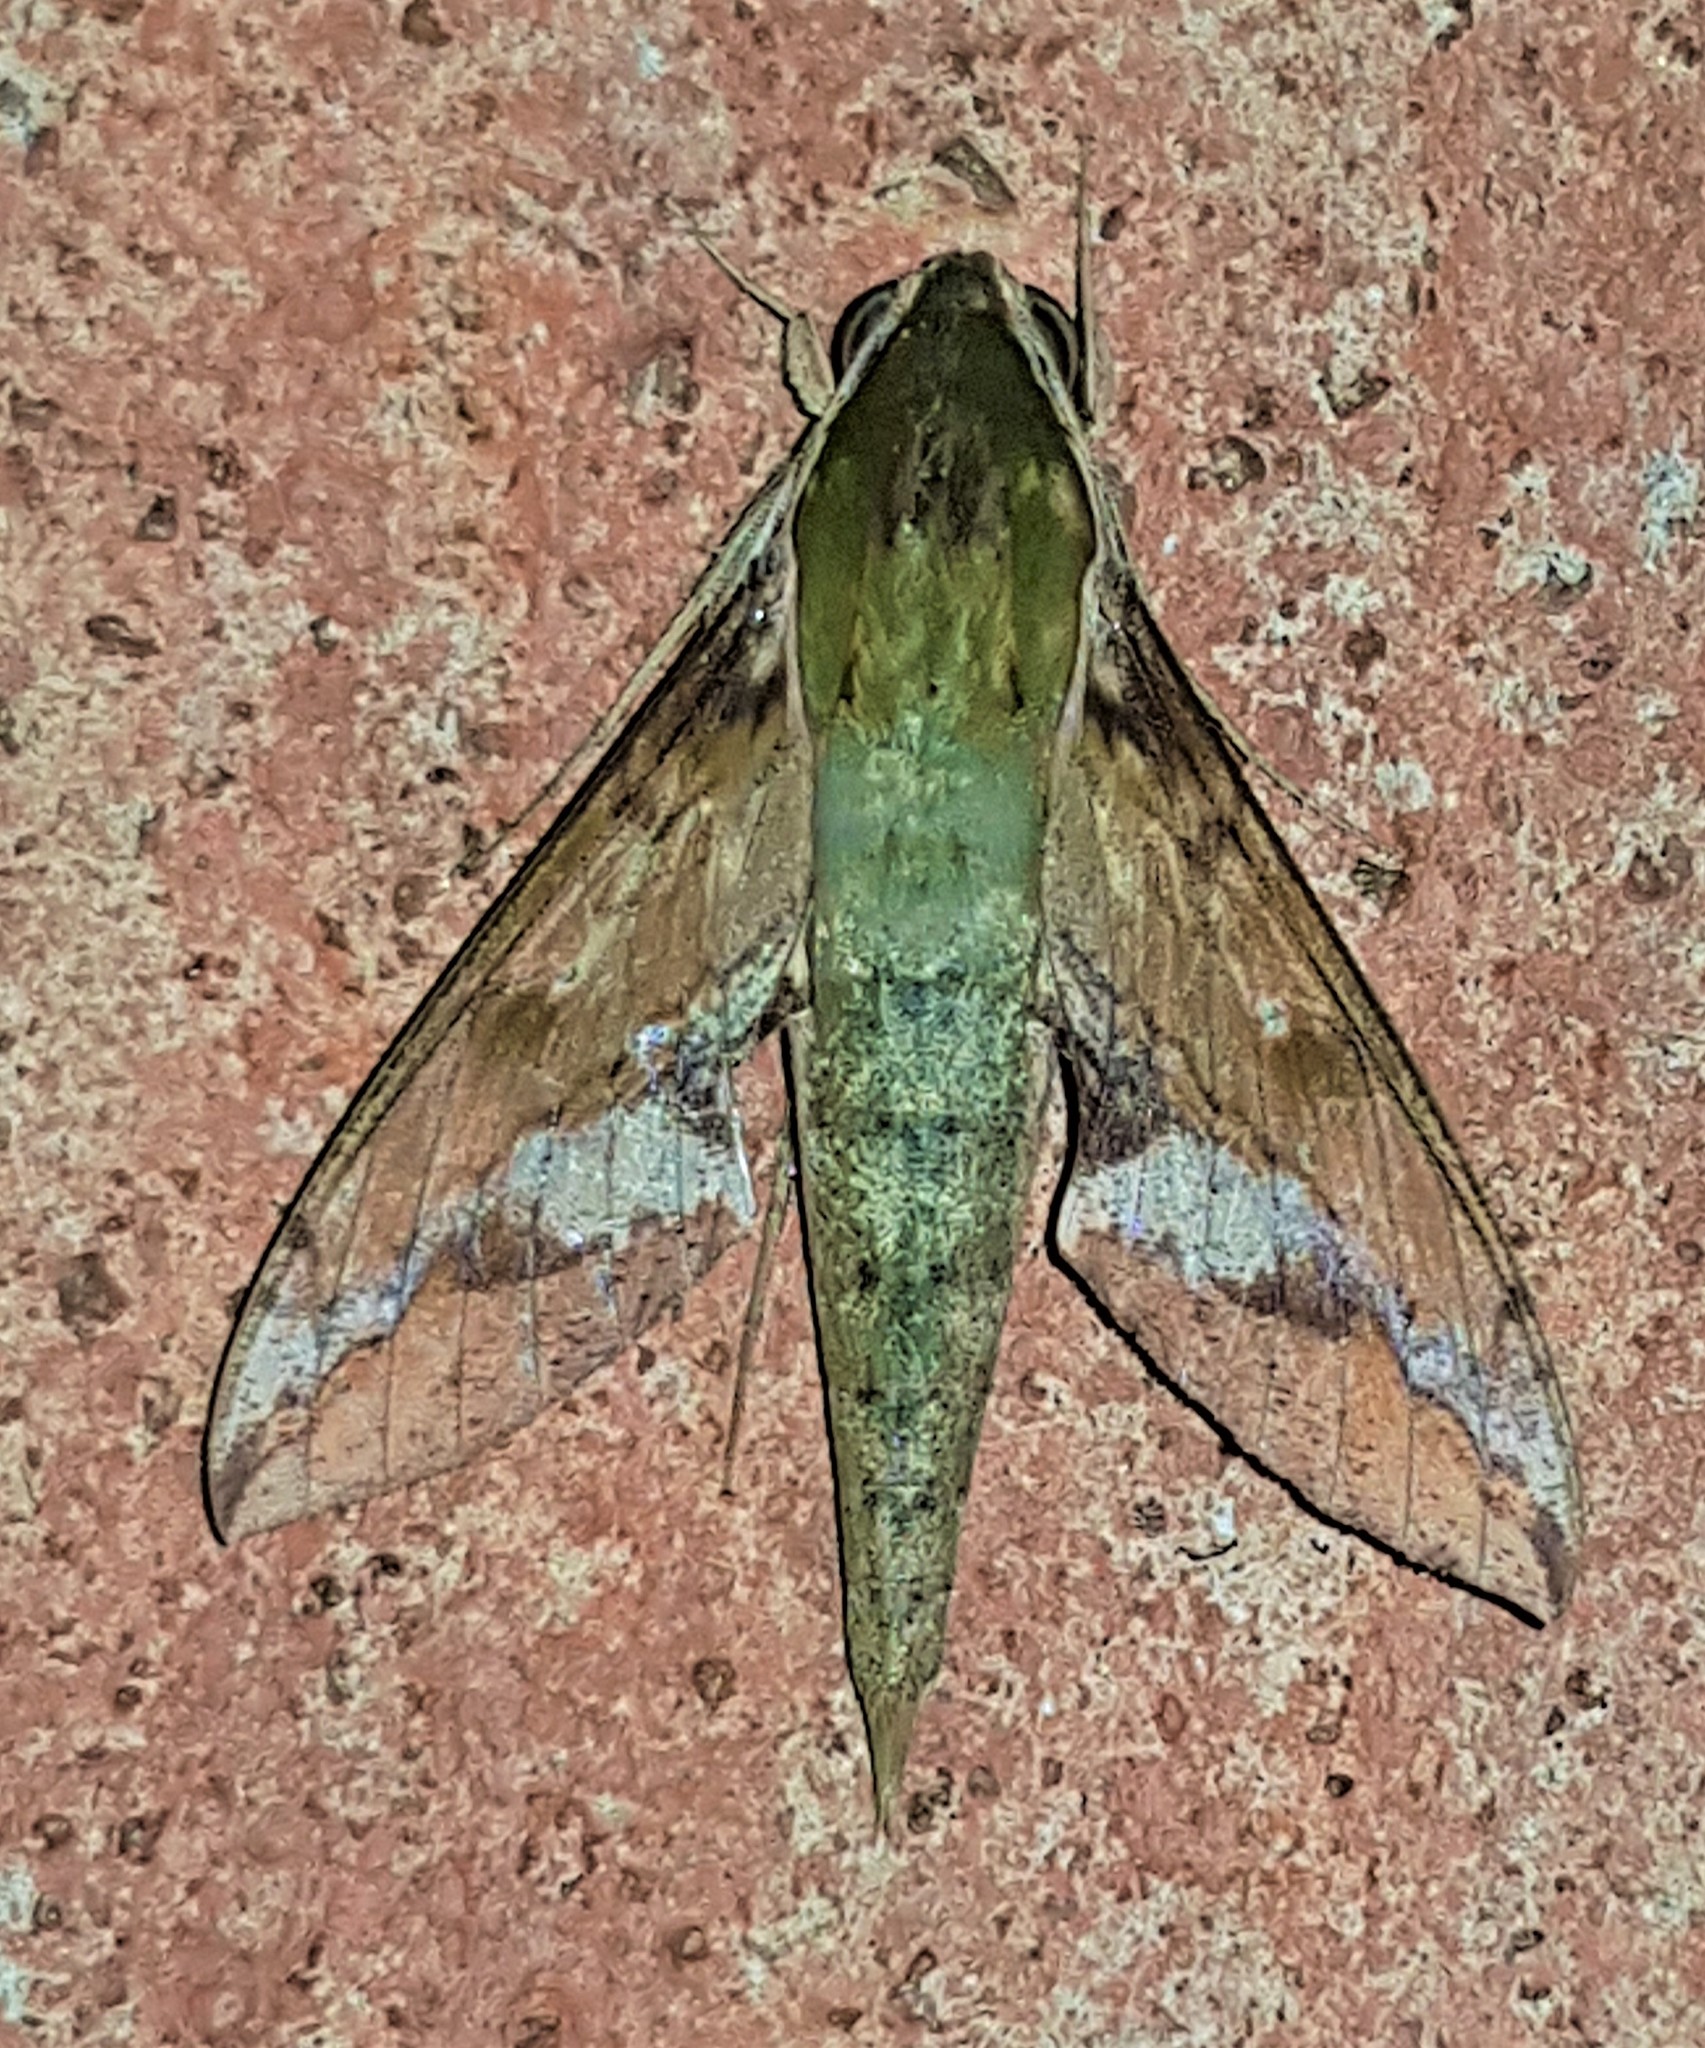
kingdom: Animalia
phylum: Arthropoda
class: Insecta
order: Lepidoptera
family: Sphingidae
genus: Xylophanes
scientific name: Xylophanes chiron
